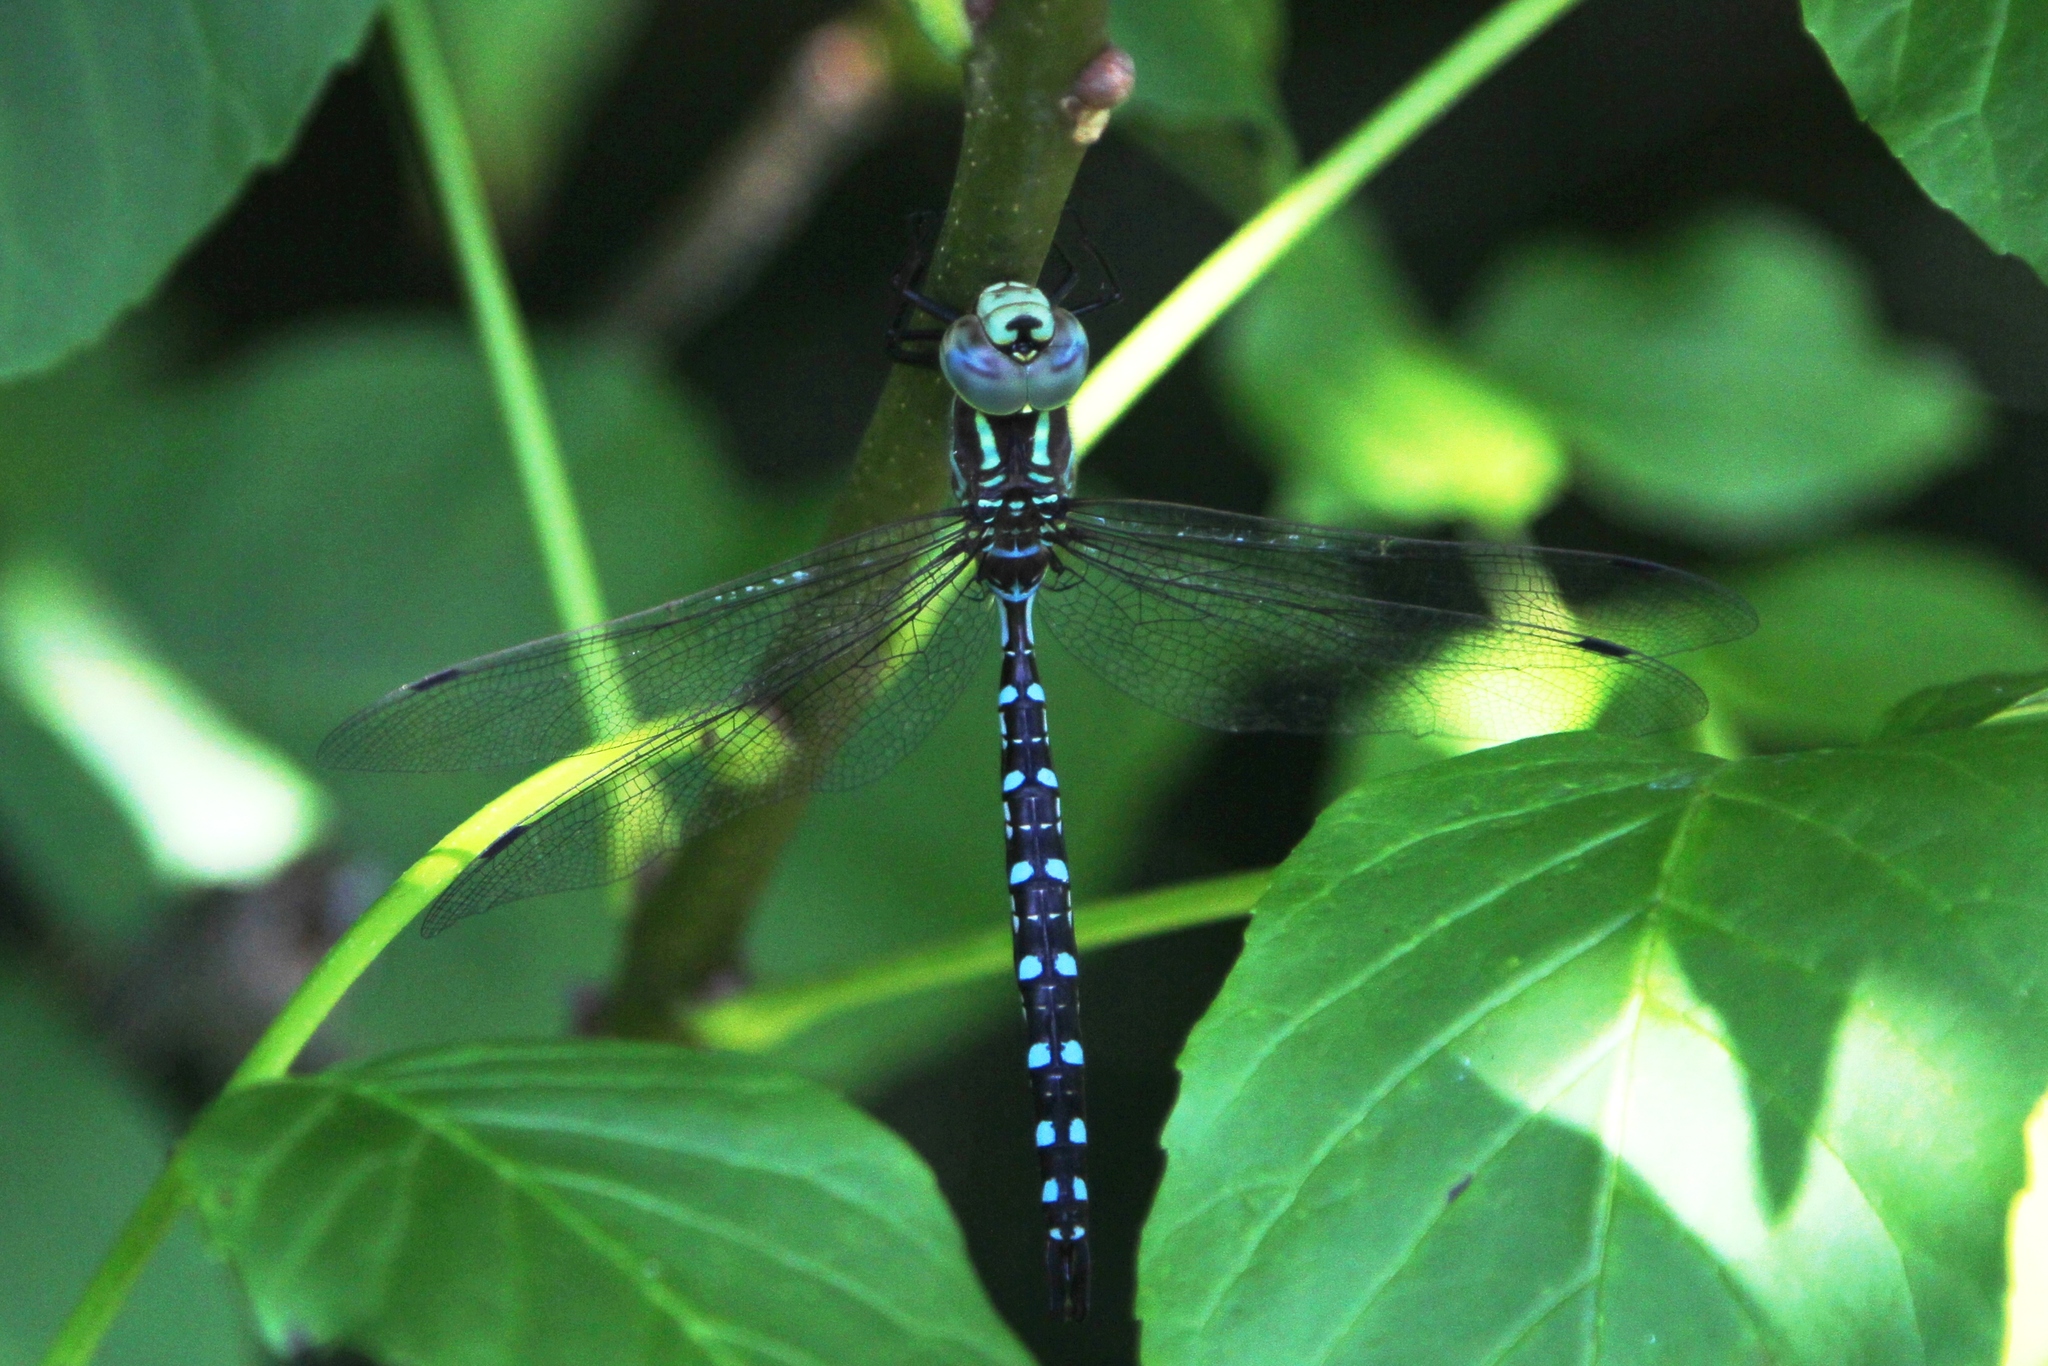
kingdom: Animalia
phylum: Arthropoda
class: Insecta
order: Odonata
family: Aeshnidae
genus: Aeshna
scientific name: Aeshna constricta
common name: Lance-tipped darner
